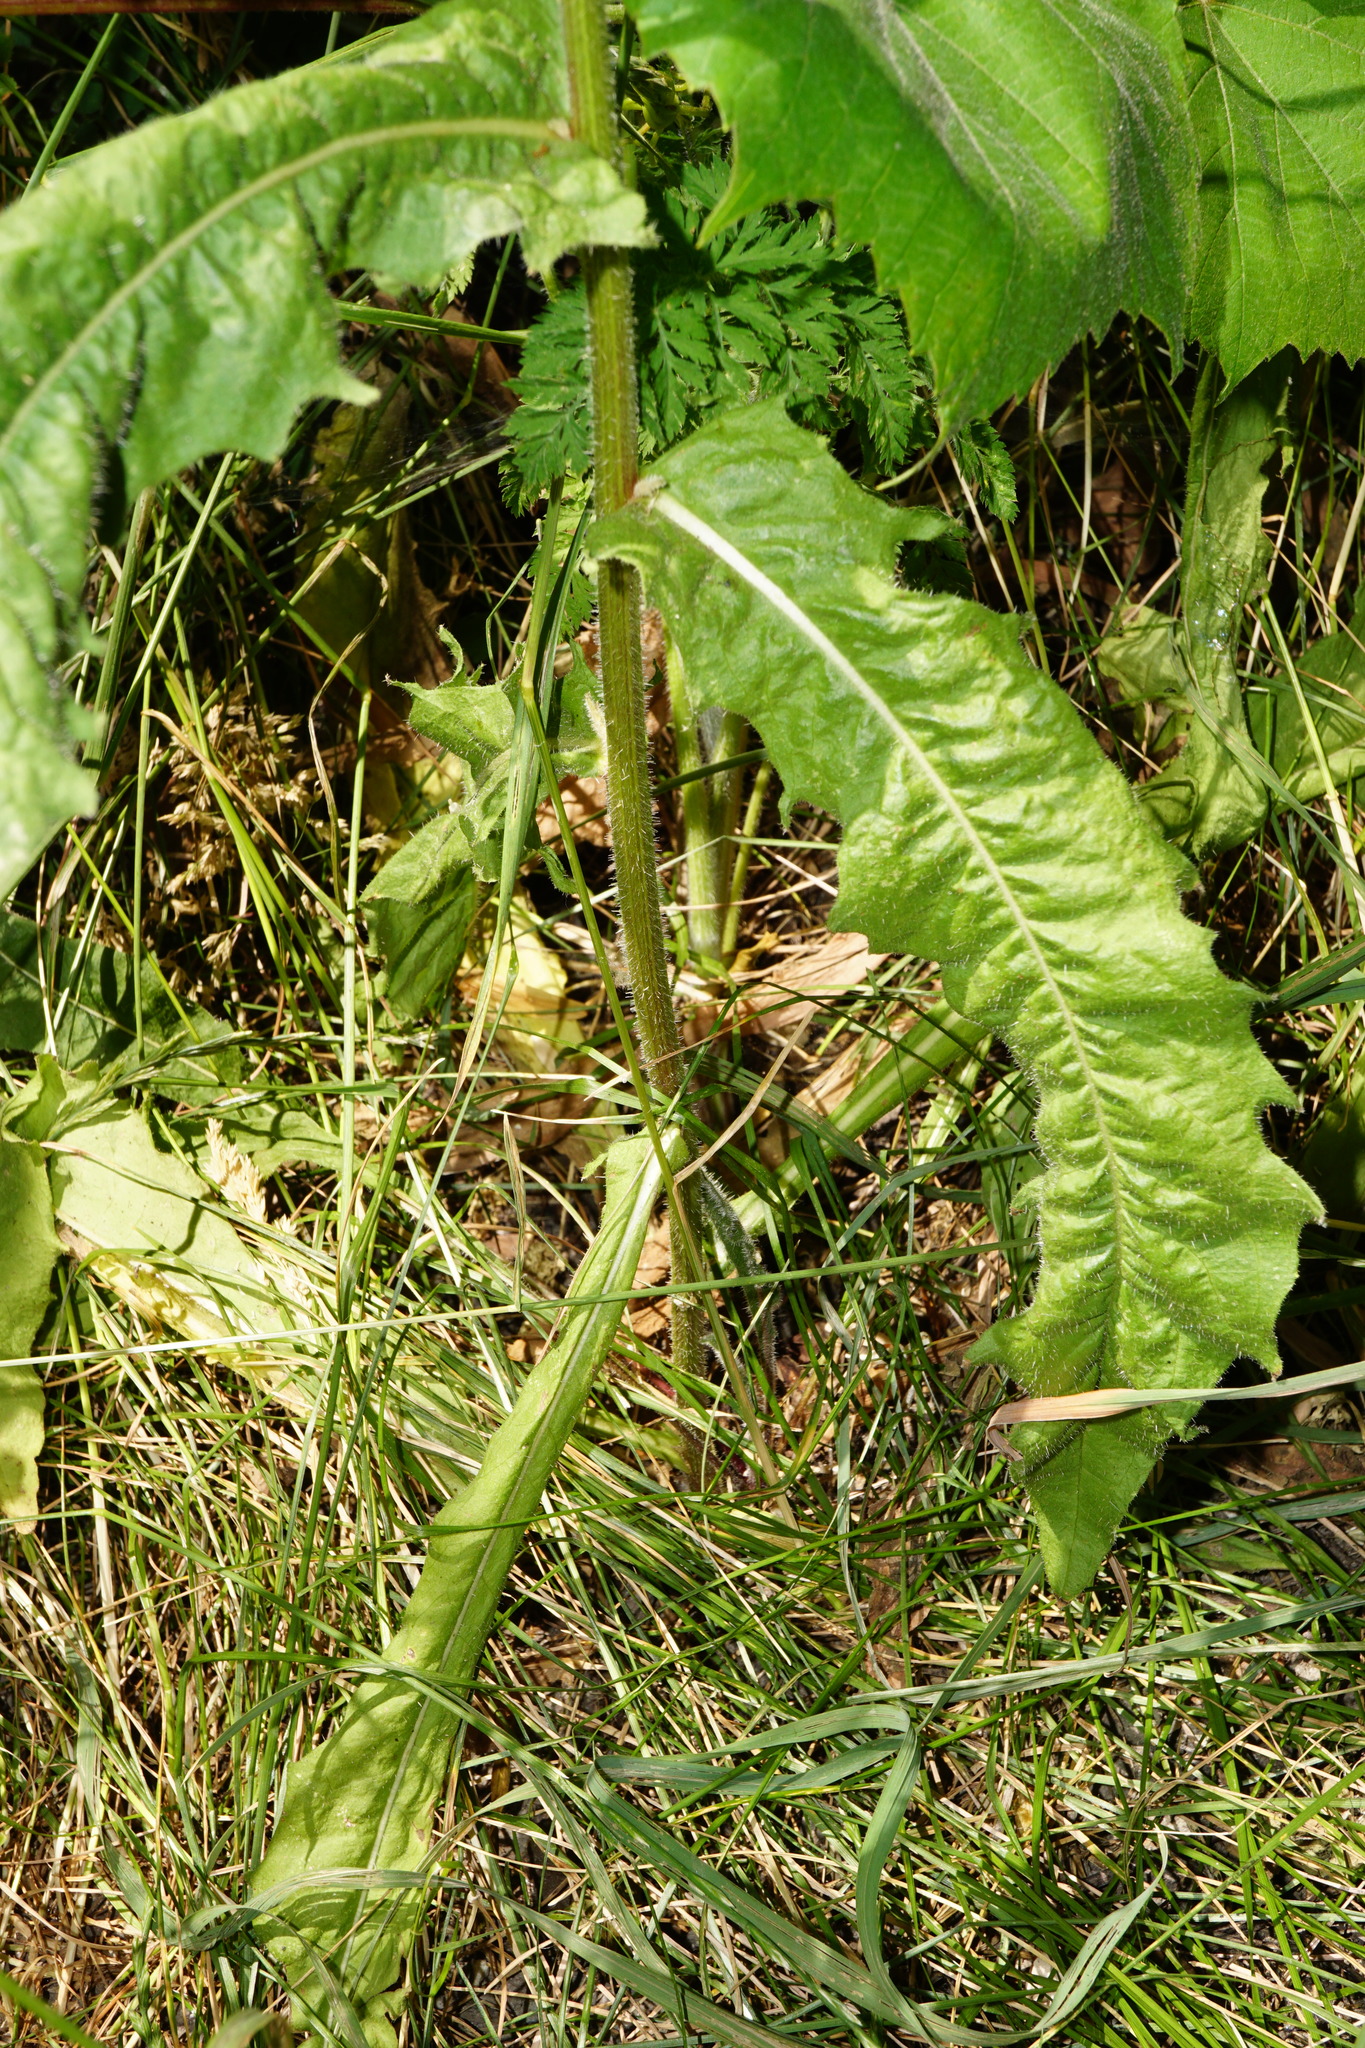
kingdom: Plantae
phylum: Tracheophyta
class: Magnoliopsida
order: Asterales
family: Asteraceae
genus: Picris
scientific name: Picris hieracioides
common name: Hawkweed oxtongue
